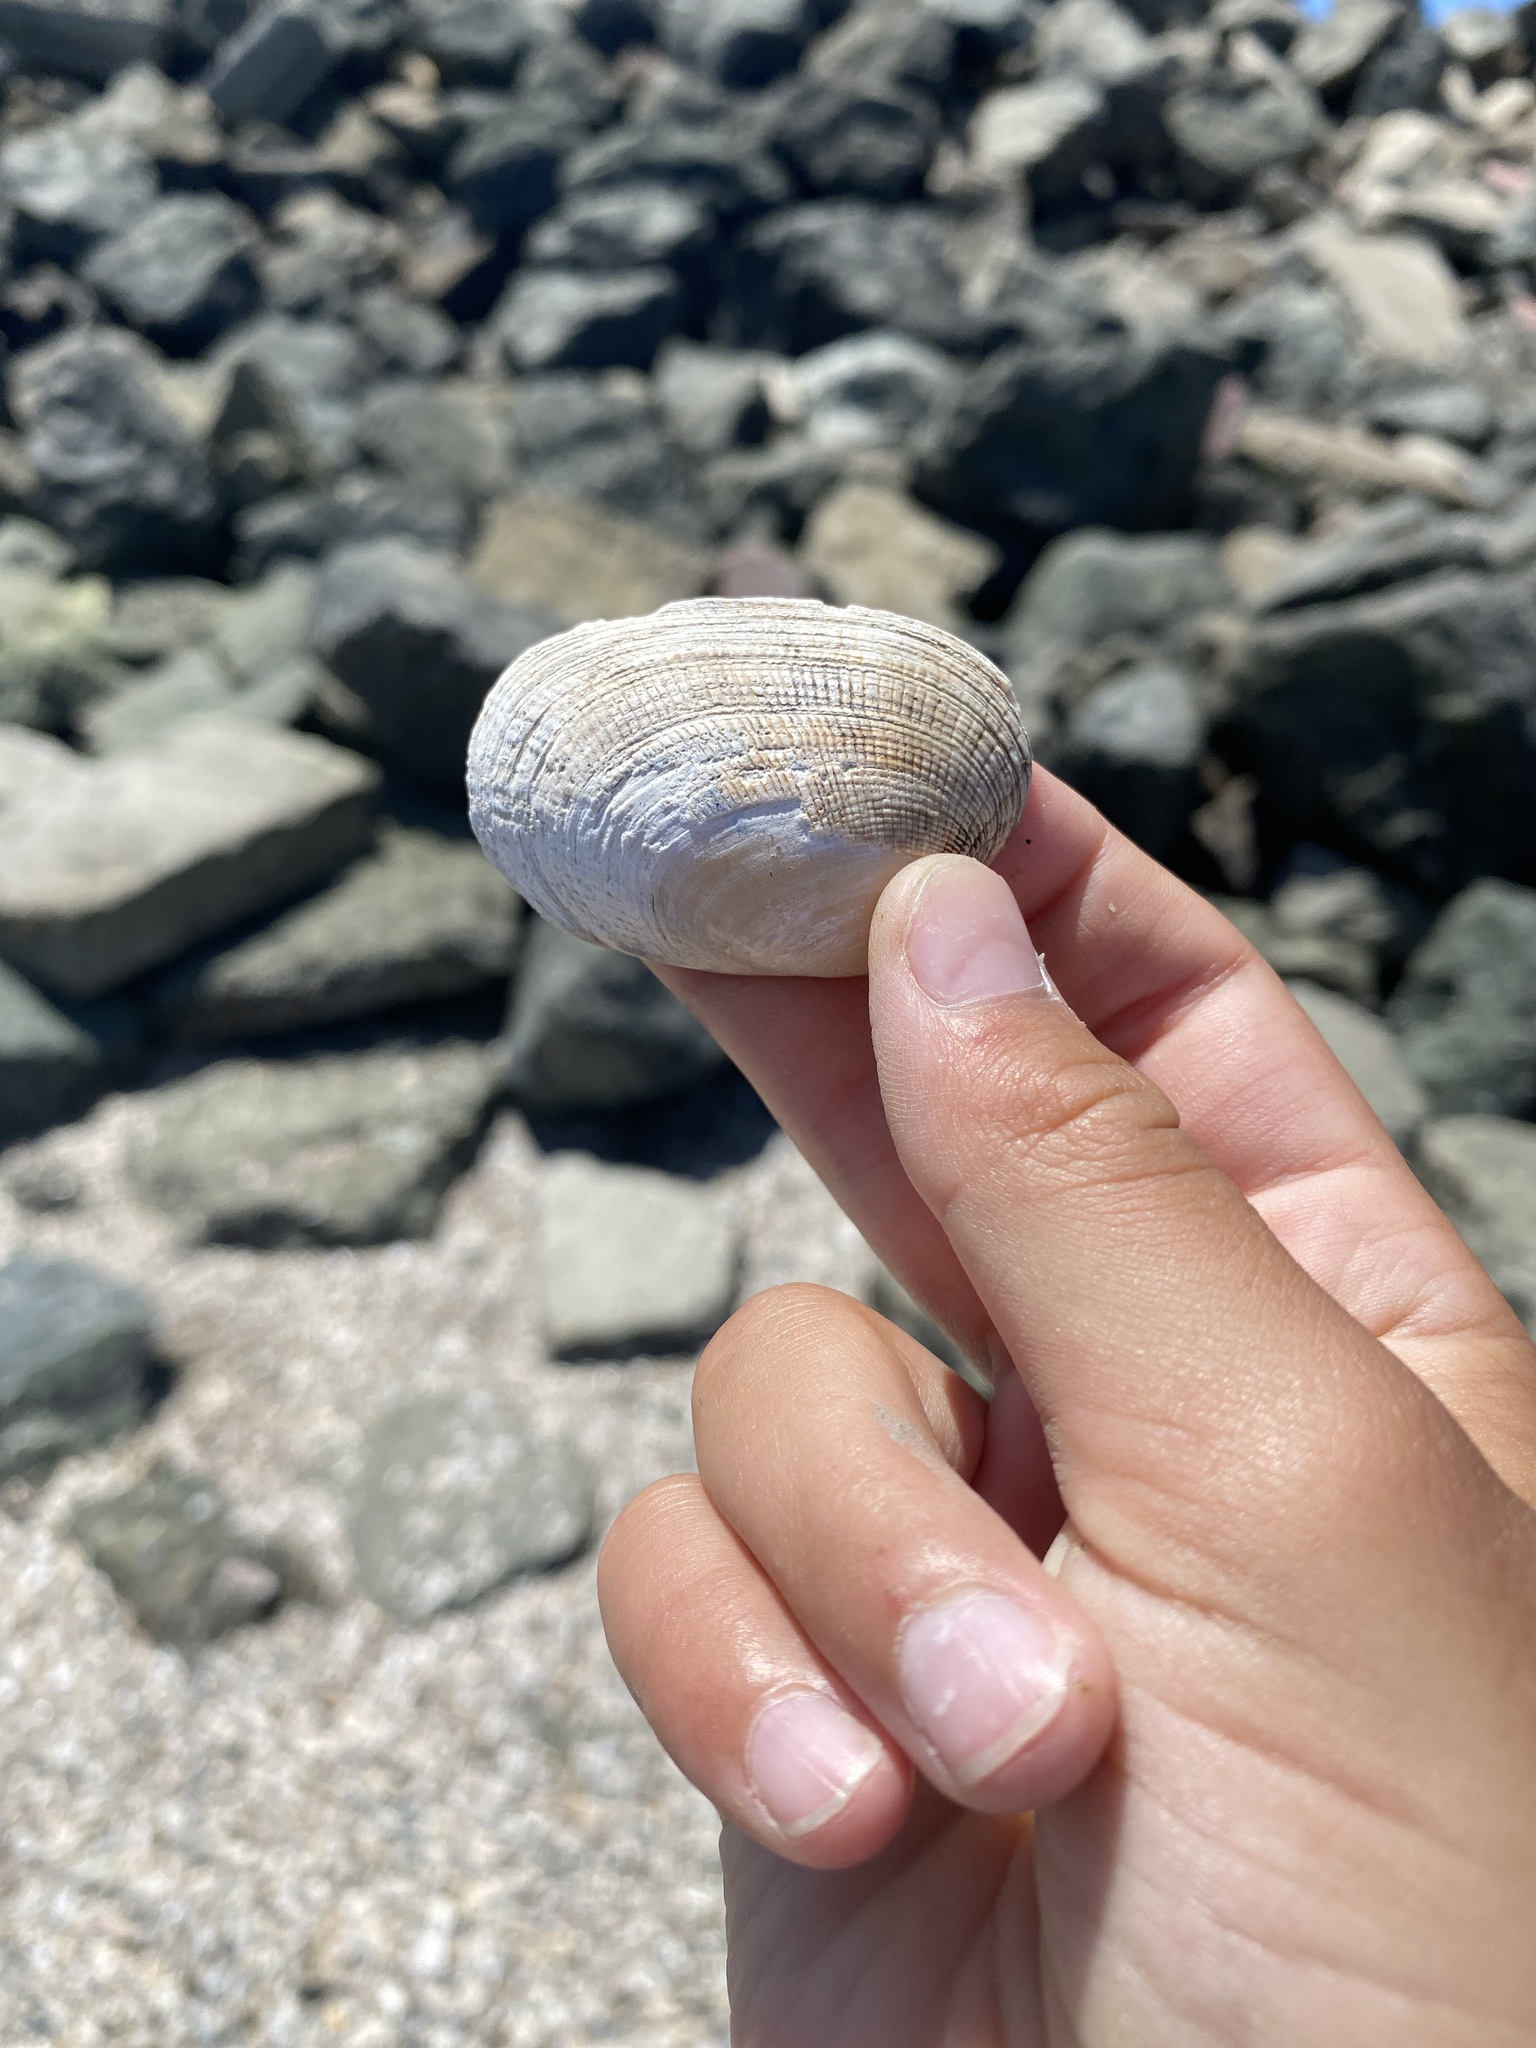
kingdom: Animalia
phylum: Mollusca
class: Bivalvia
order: Venerida
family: Veneridae
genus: Ruditapes
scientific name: Ruditapes philippinarum
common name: Manila clam
